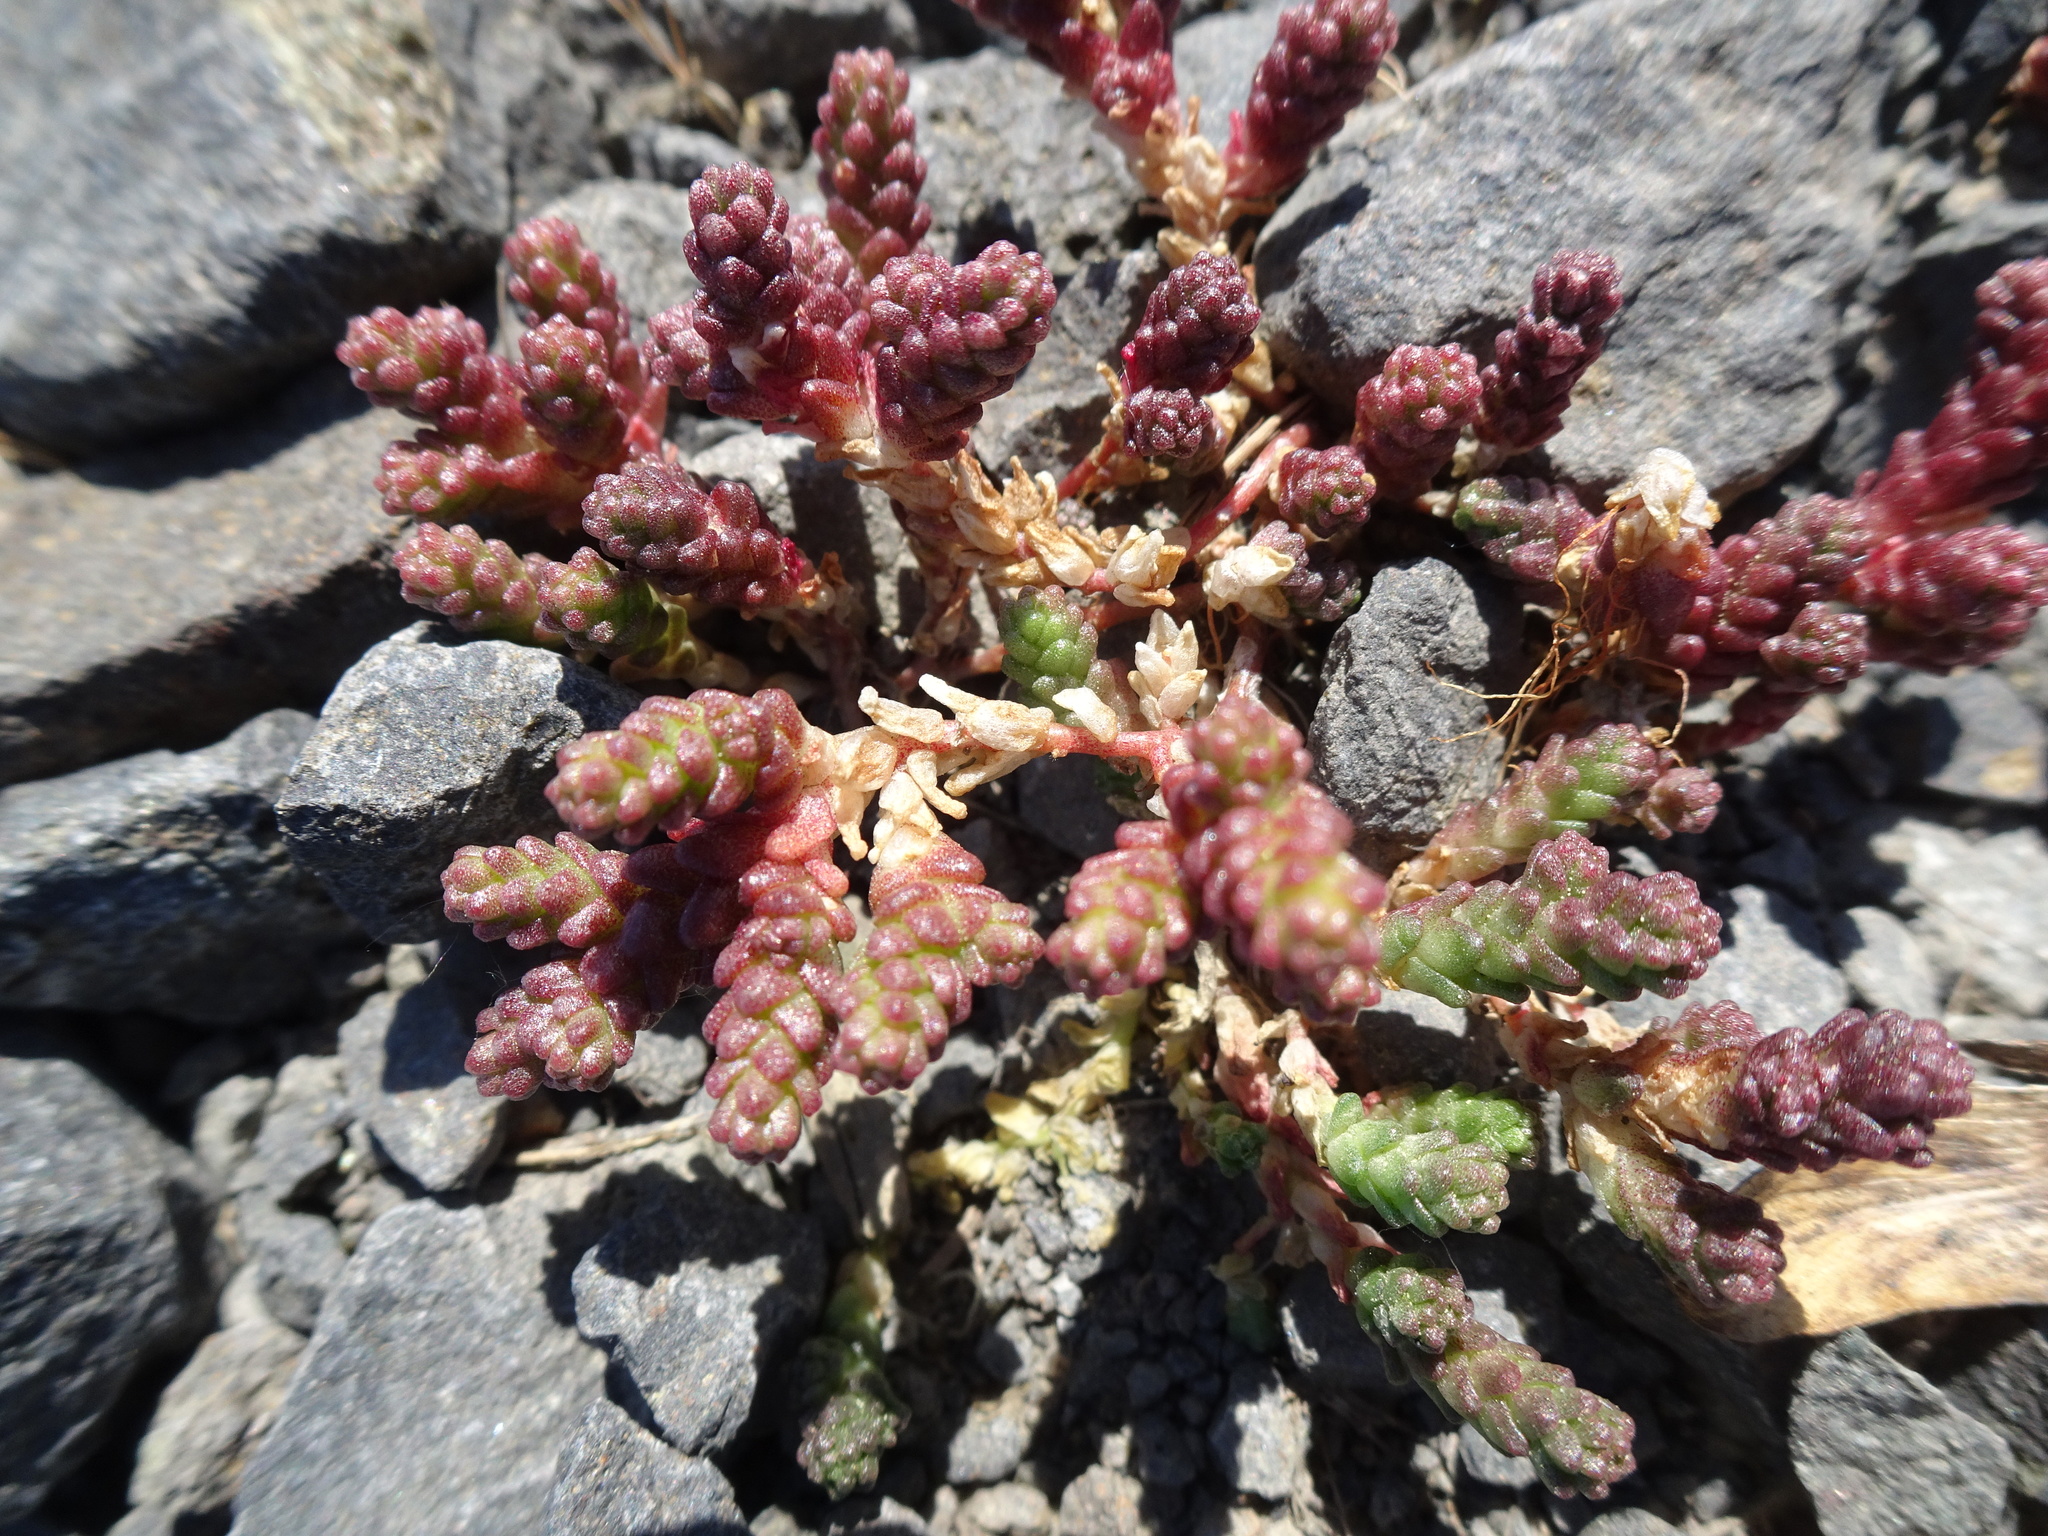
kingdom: Plantae
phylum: Tracheophyta
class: Magnoliopsida
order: Saxifragales
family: Crassulaceae
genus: Sedum
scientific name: Sedum acre
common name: Biting stonecrop
